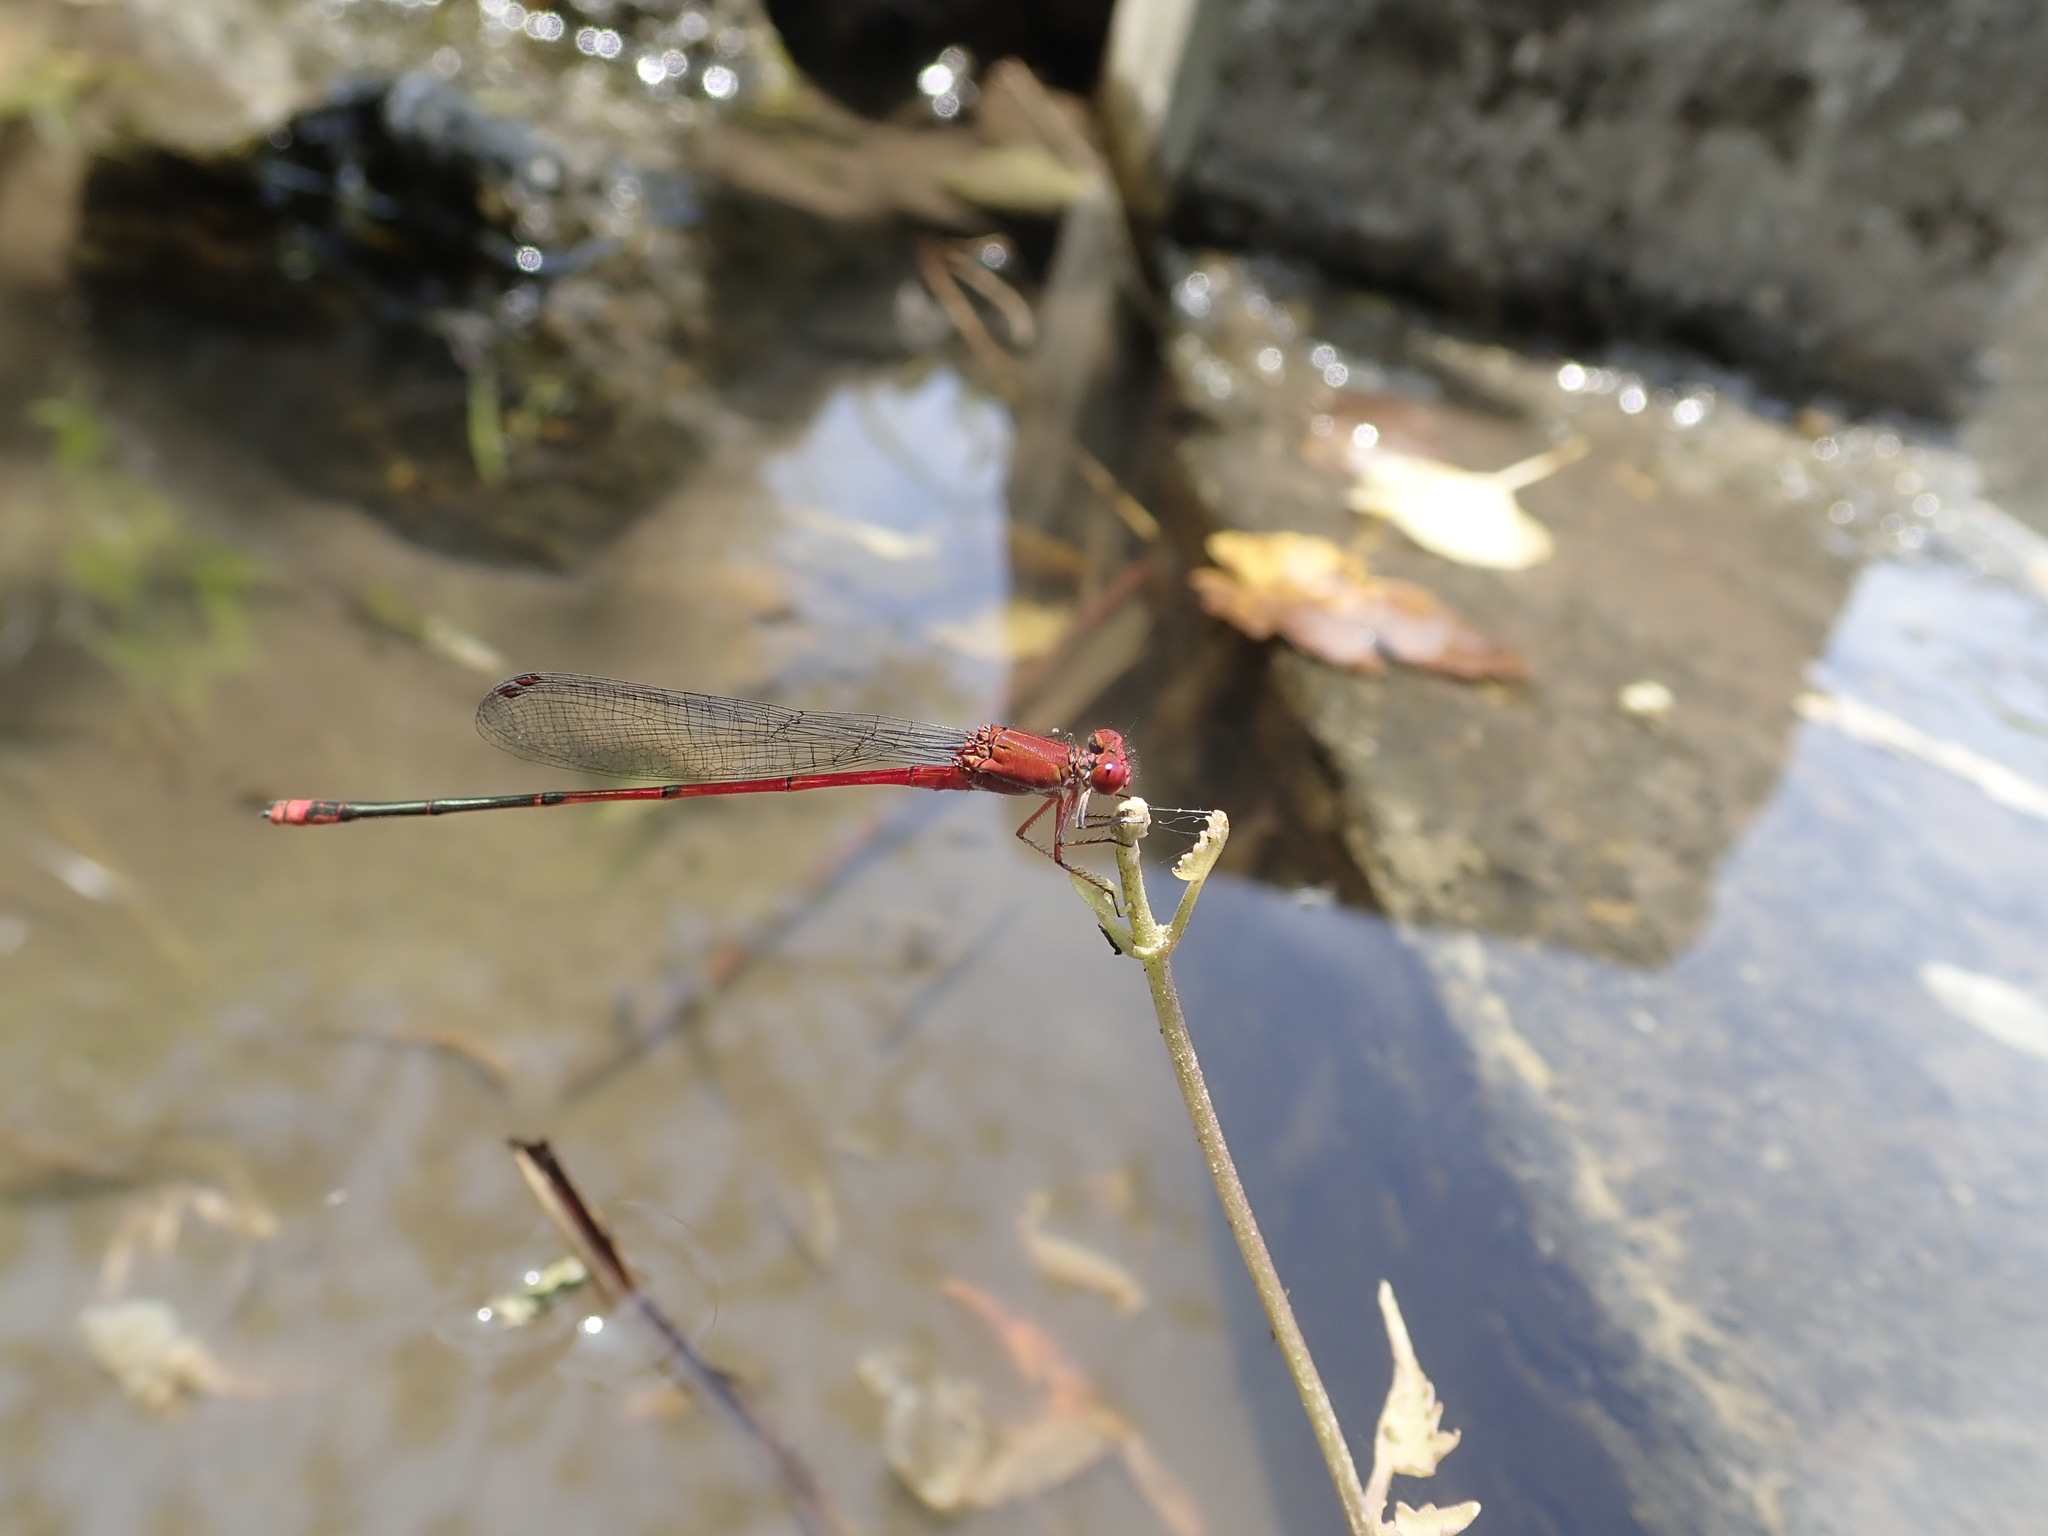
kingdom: Animalia
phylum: Arthropoda
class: Insecta
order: Odonata
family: Coenagrionidae
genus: Pseudagrion
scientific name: Pseudagrion pilidorsum
